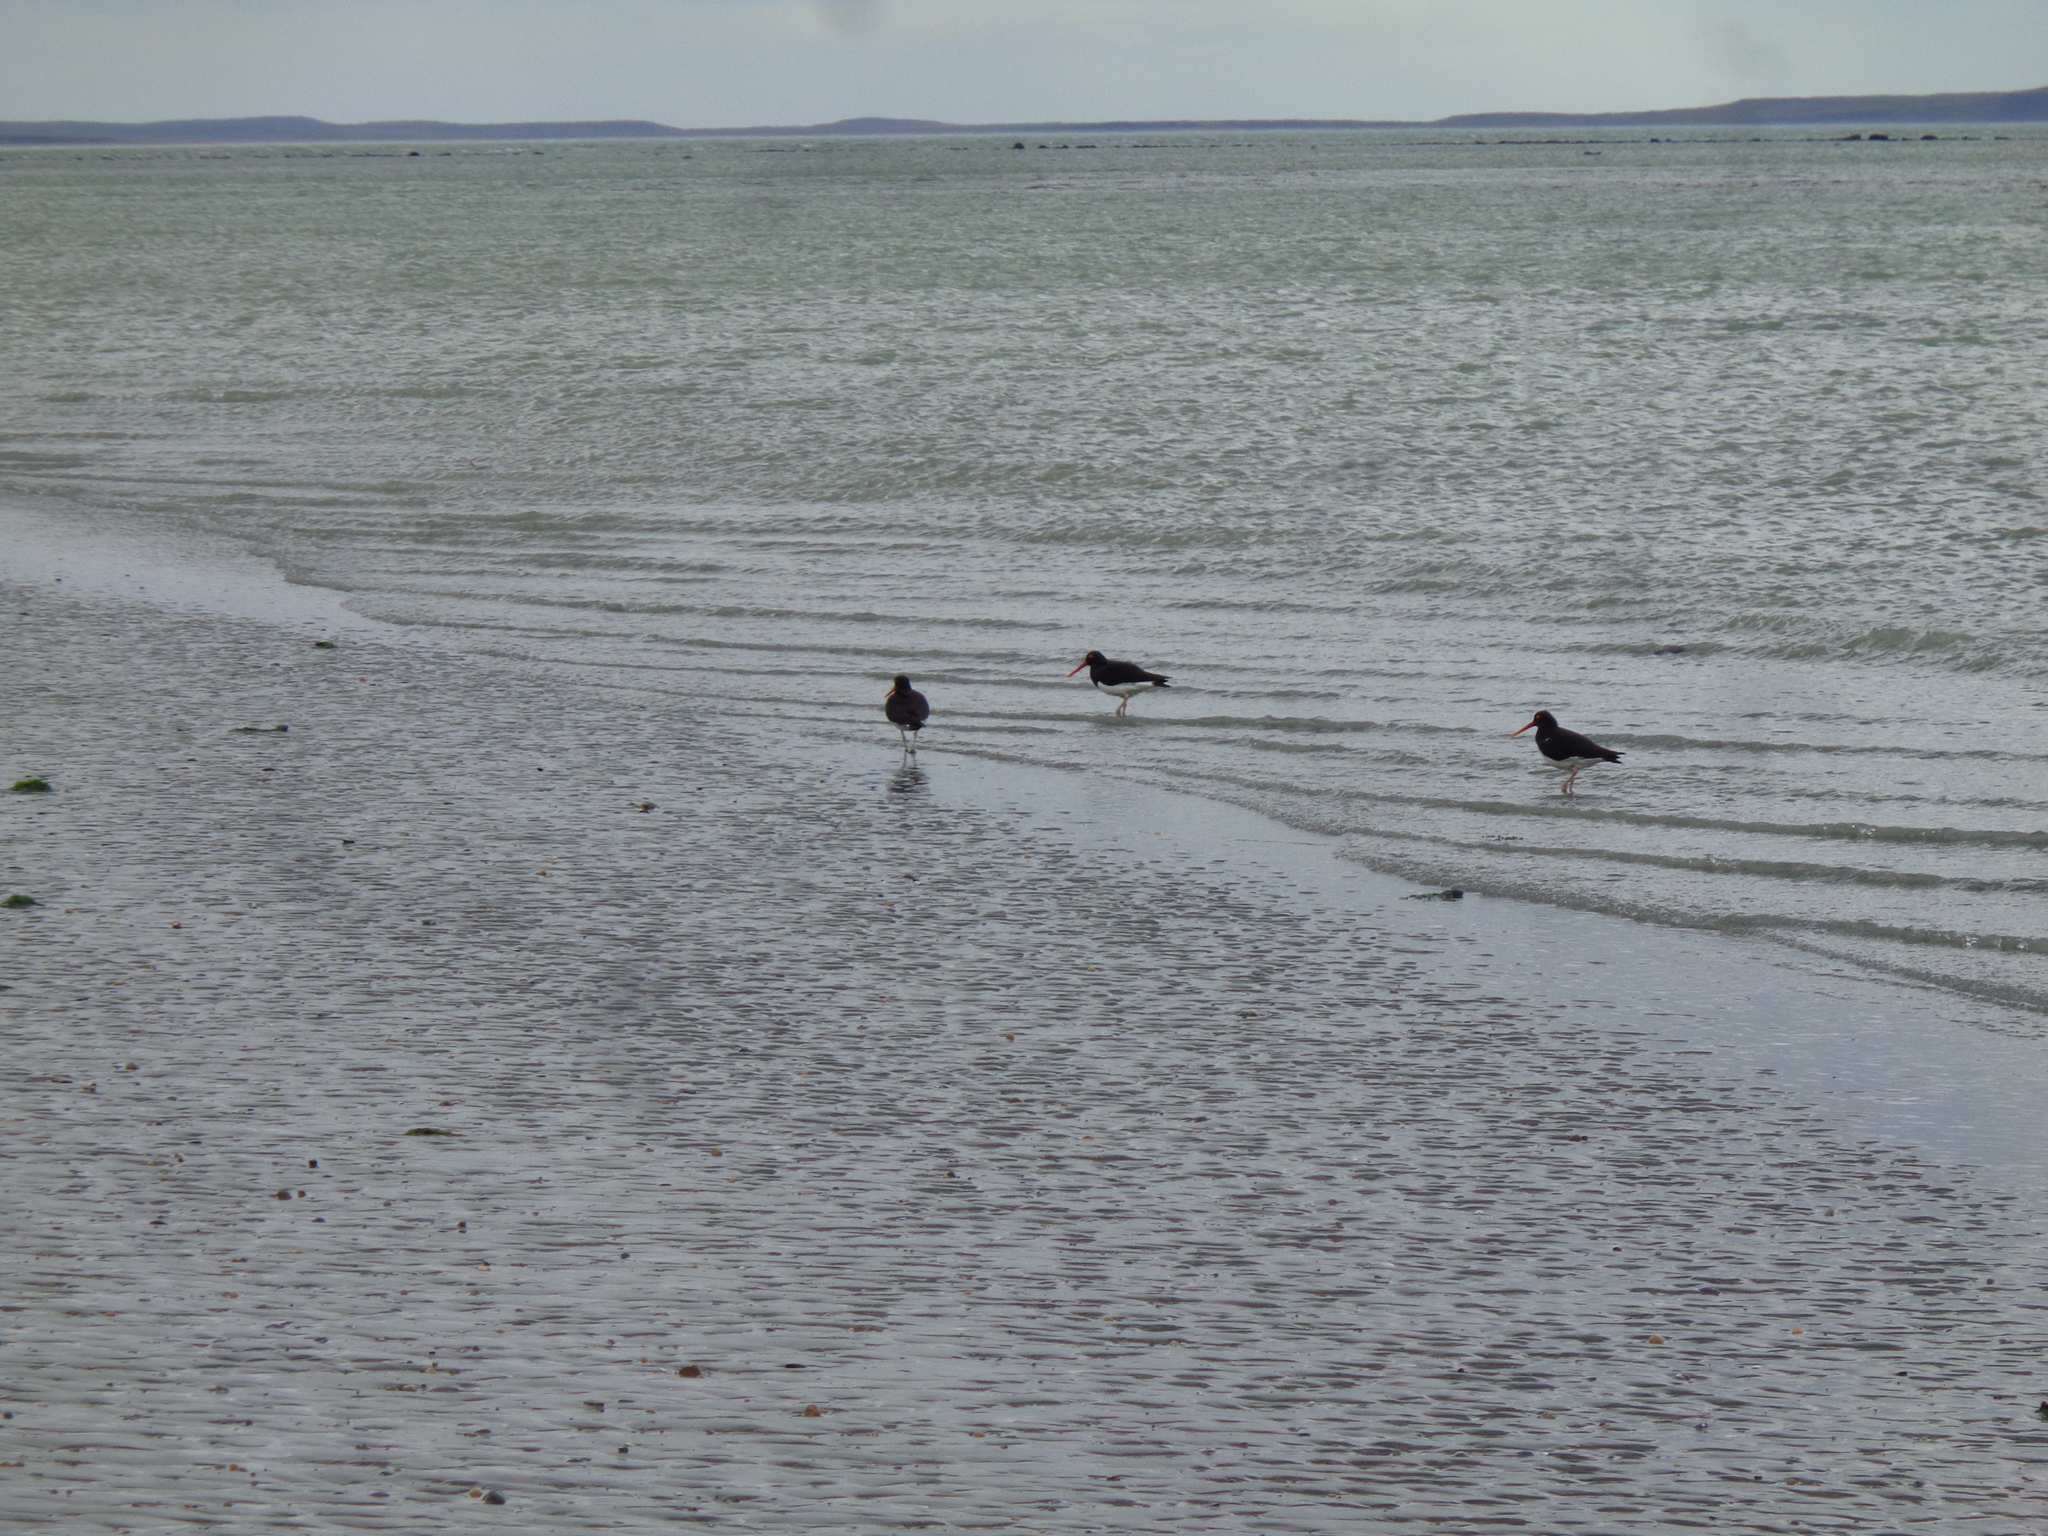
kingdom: Animalia
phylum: Chordata
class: Aves
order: Charadriiformes
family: Haematopodidae
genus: Haematopus
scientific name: Haematopus leucopodus
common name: Magellanic oystercatcher
